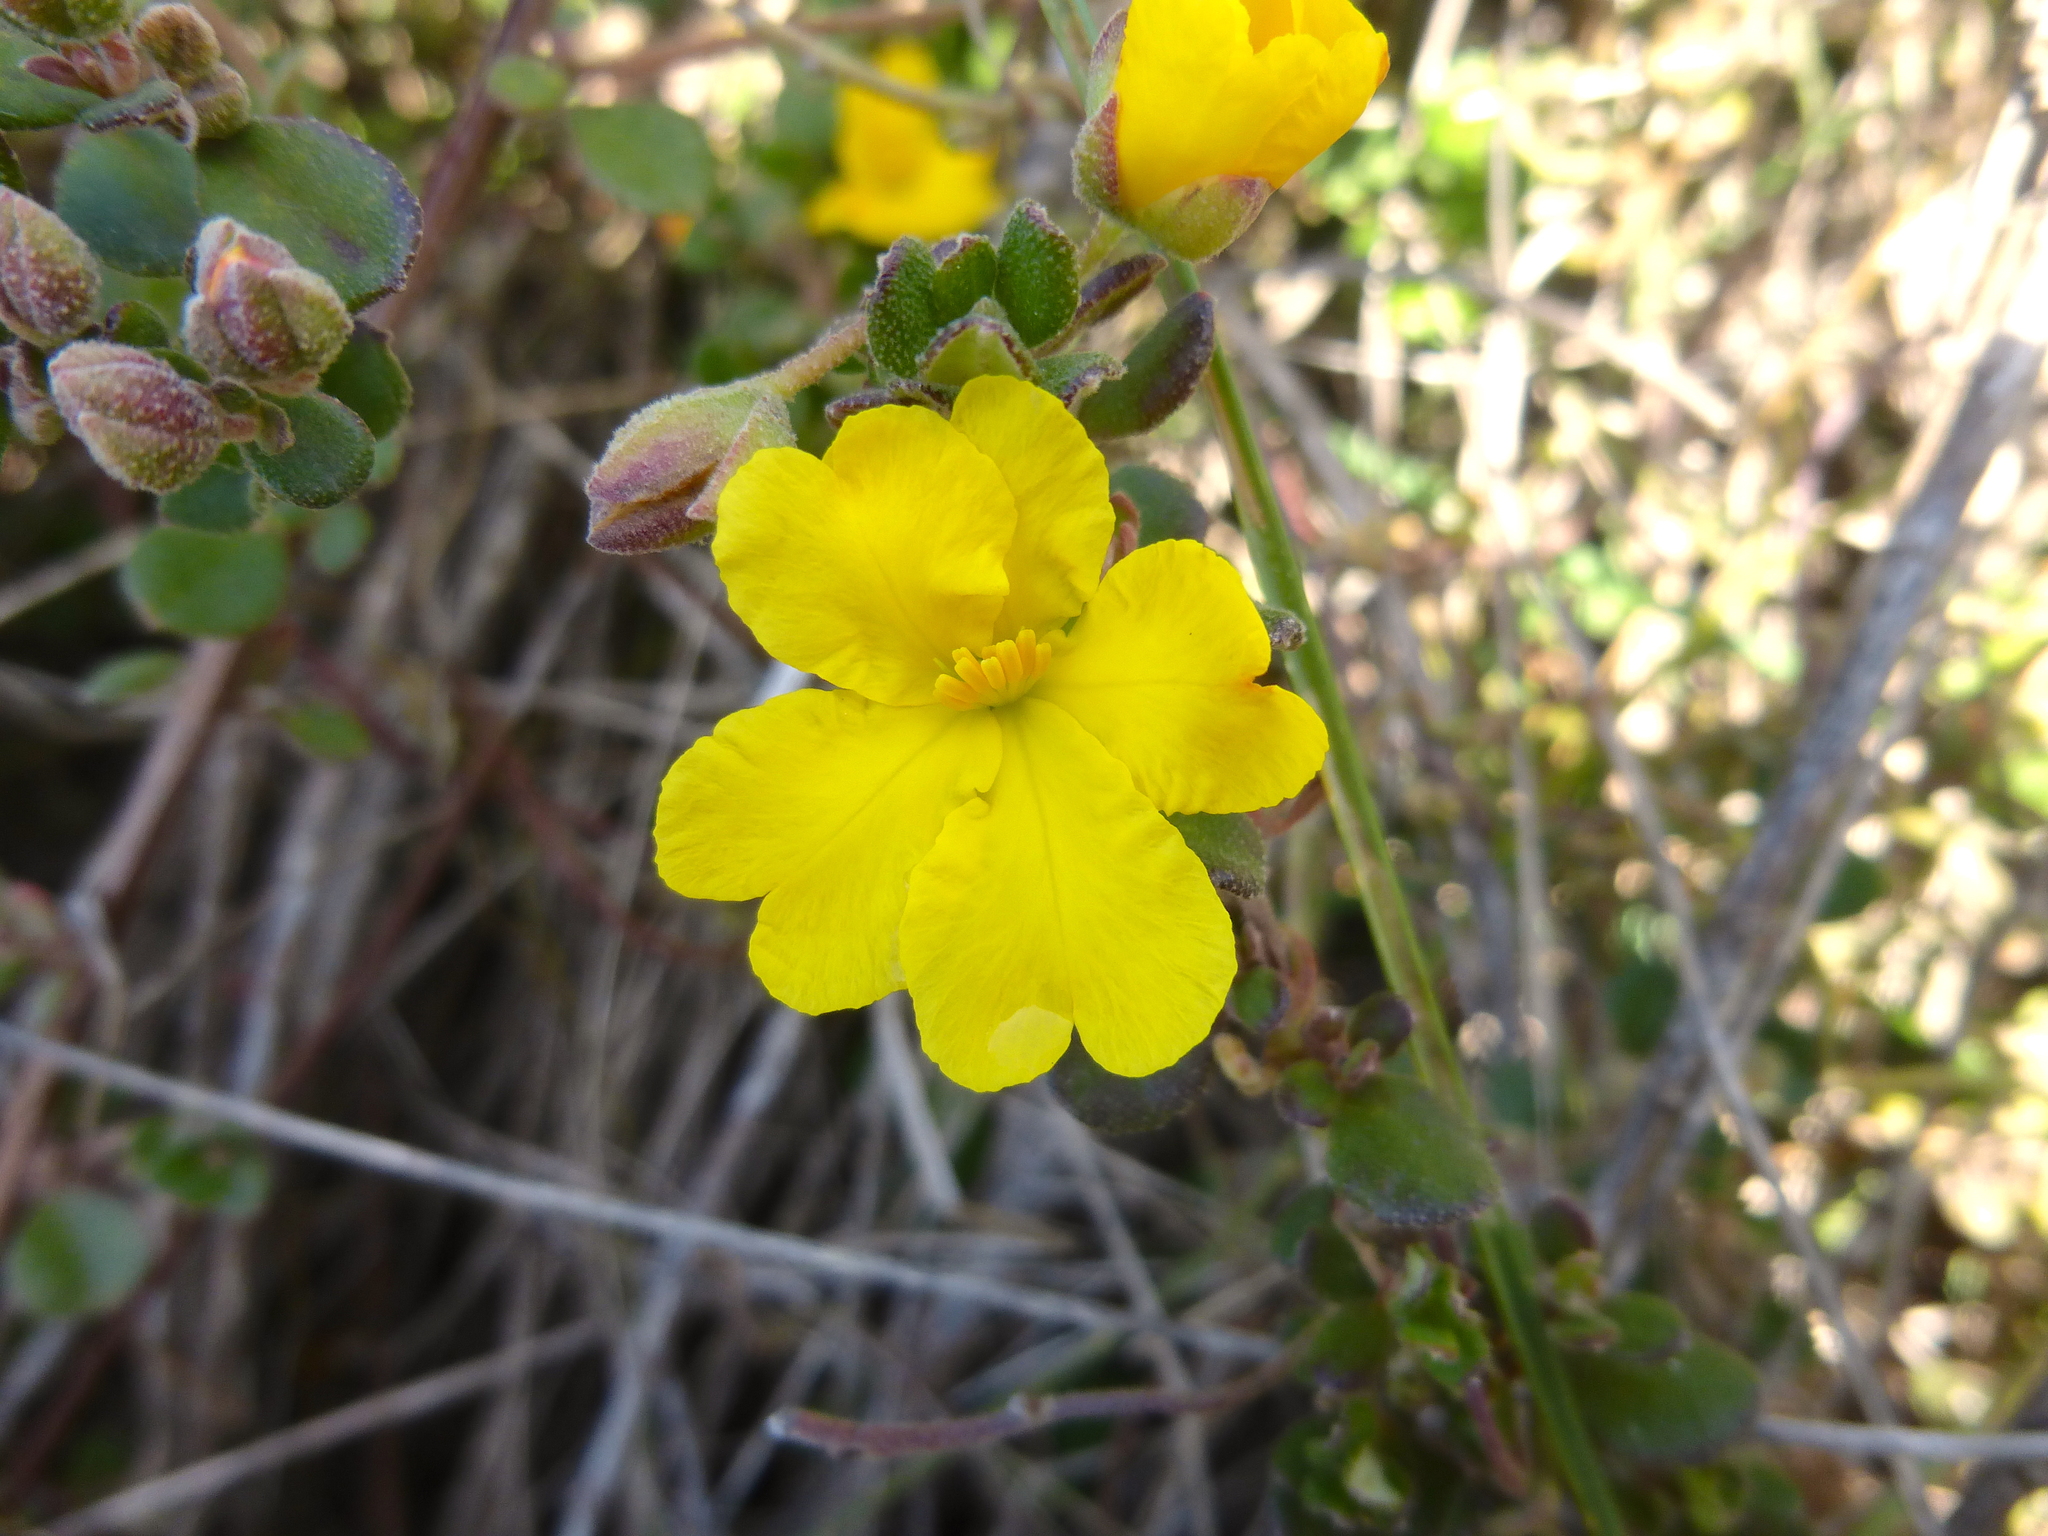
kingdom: Plantae
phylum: Tracheophyta
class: Magnoliopsida
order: Dilleniales
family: Dilleniaceae
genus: Hibbertia
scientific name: Hibbertia truncata
